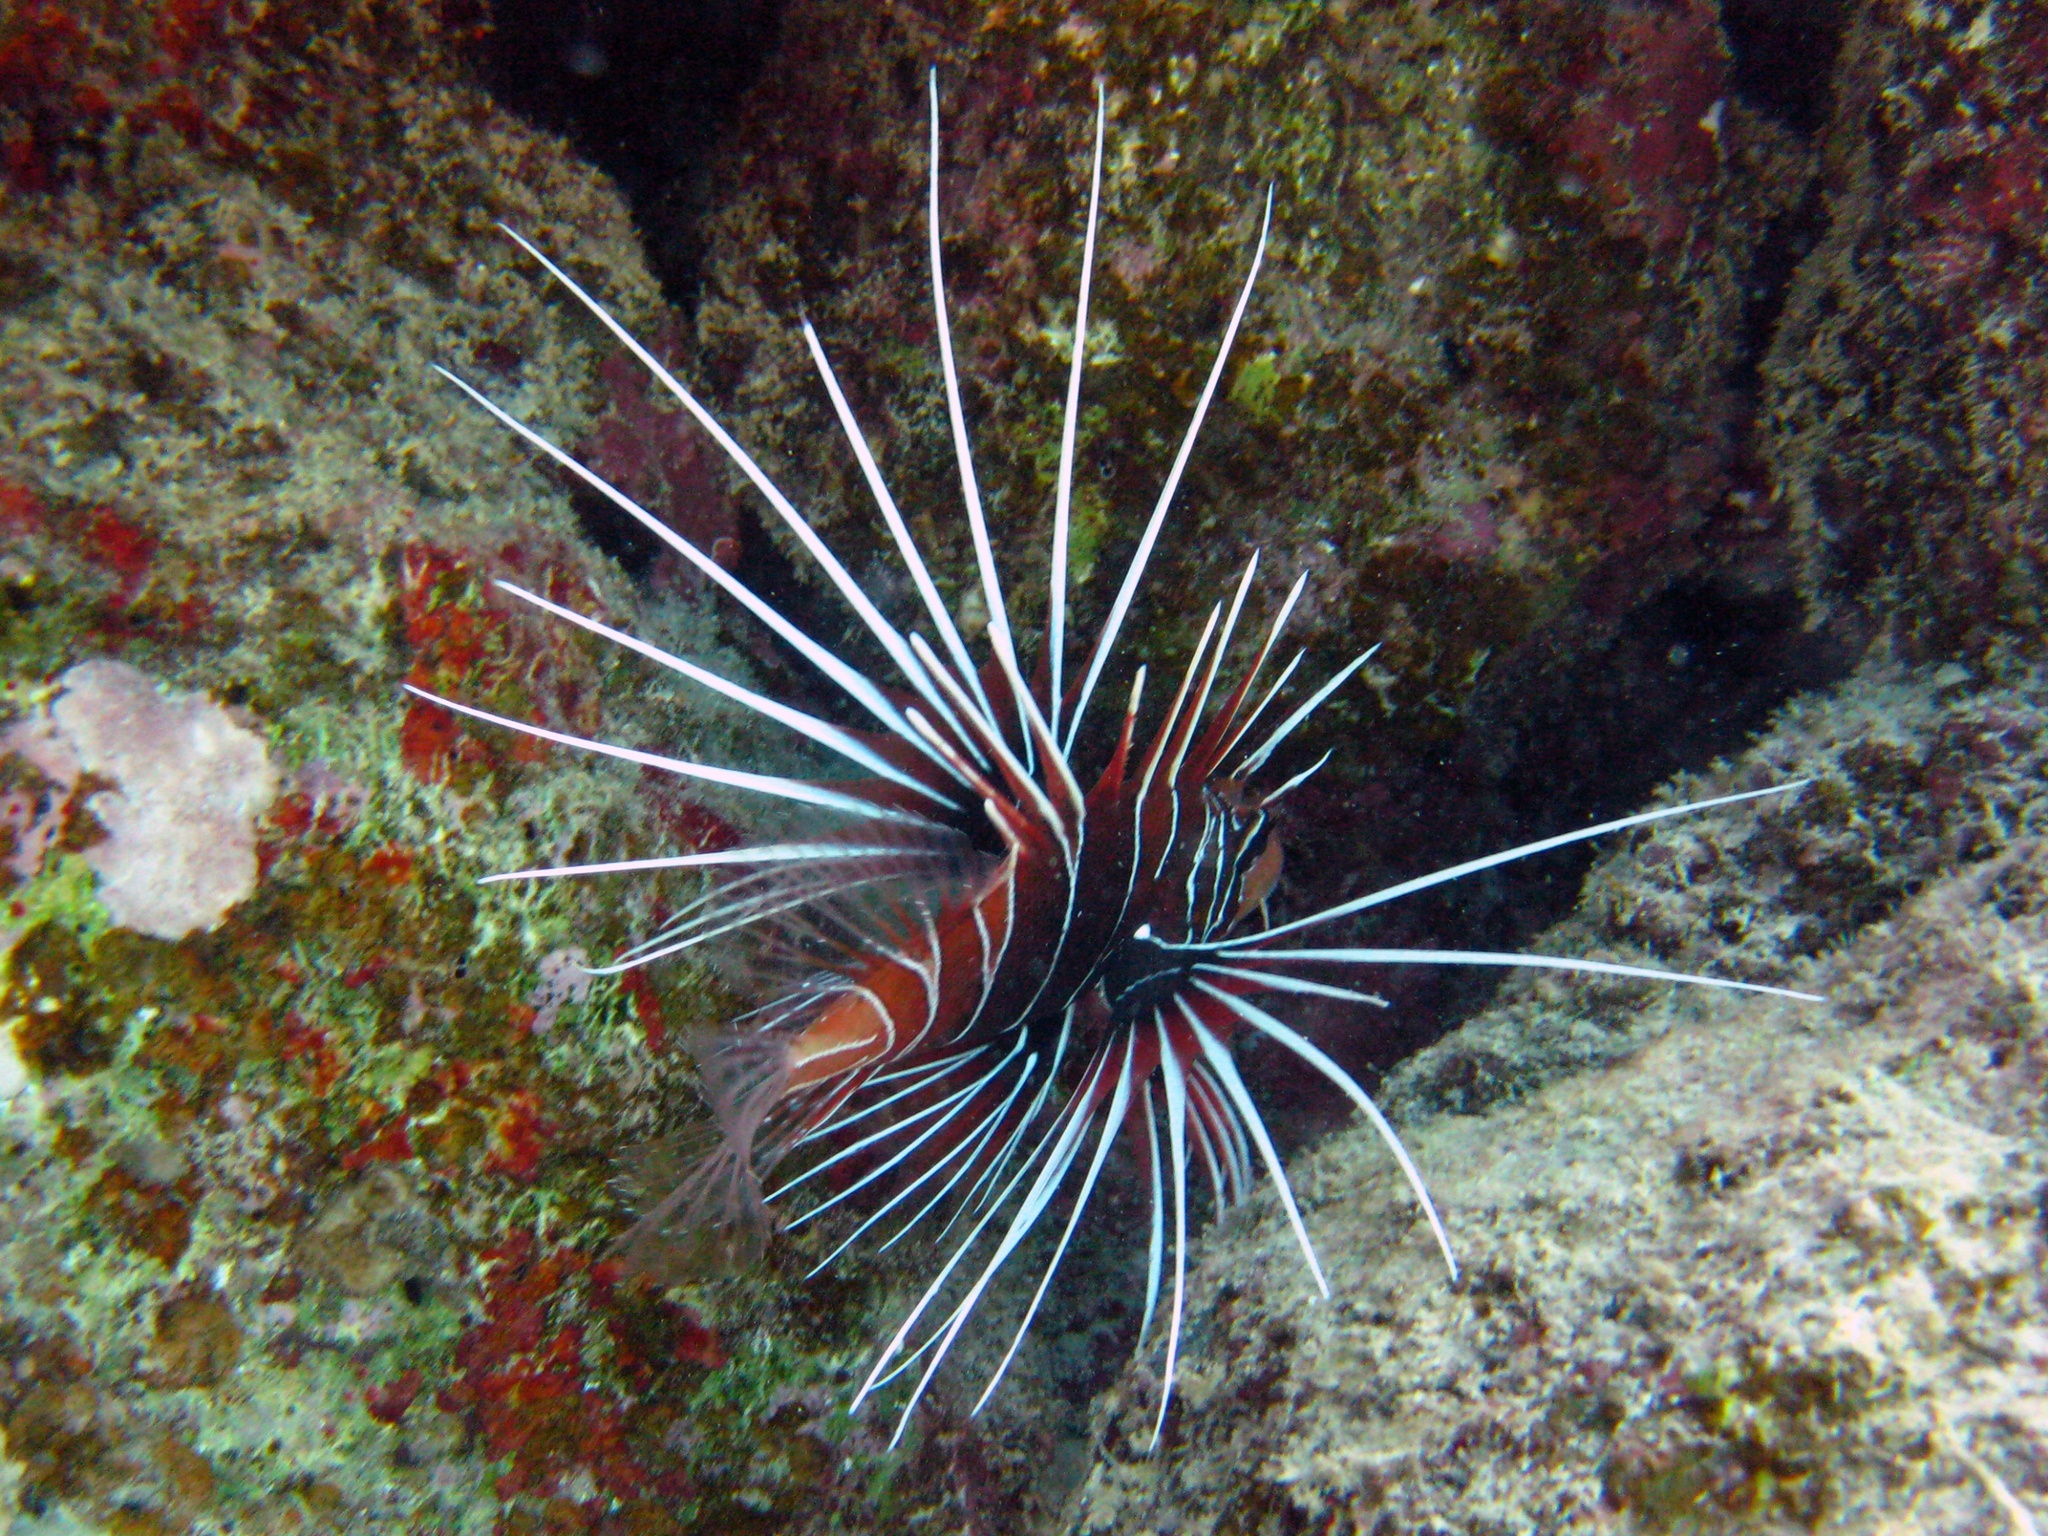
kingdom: Animalia
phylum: Chordata
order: Scorpaeniformes
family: Scorpaenidae
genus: Pterois
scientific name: Pterois cincta
